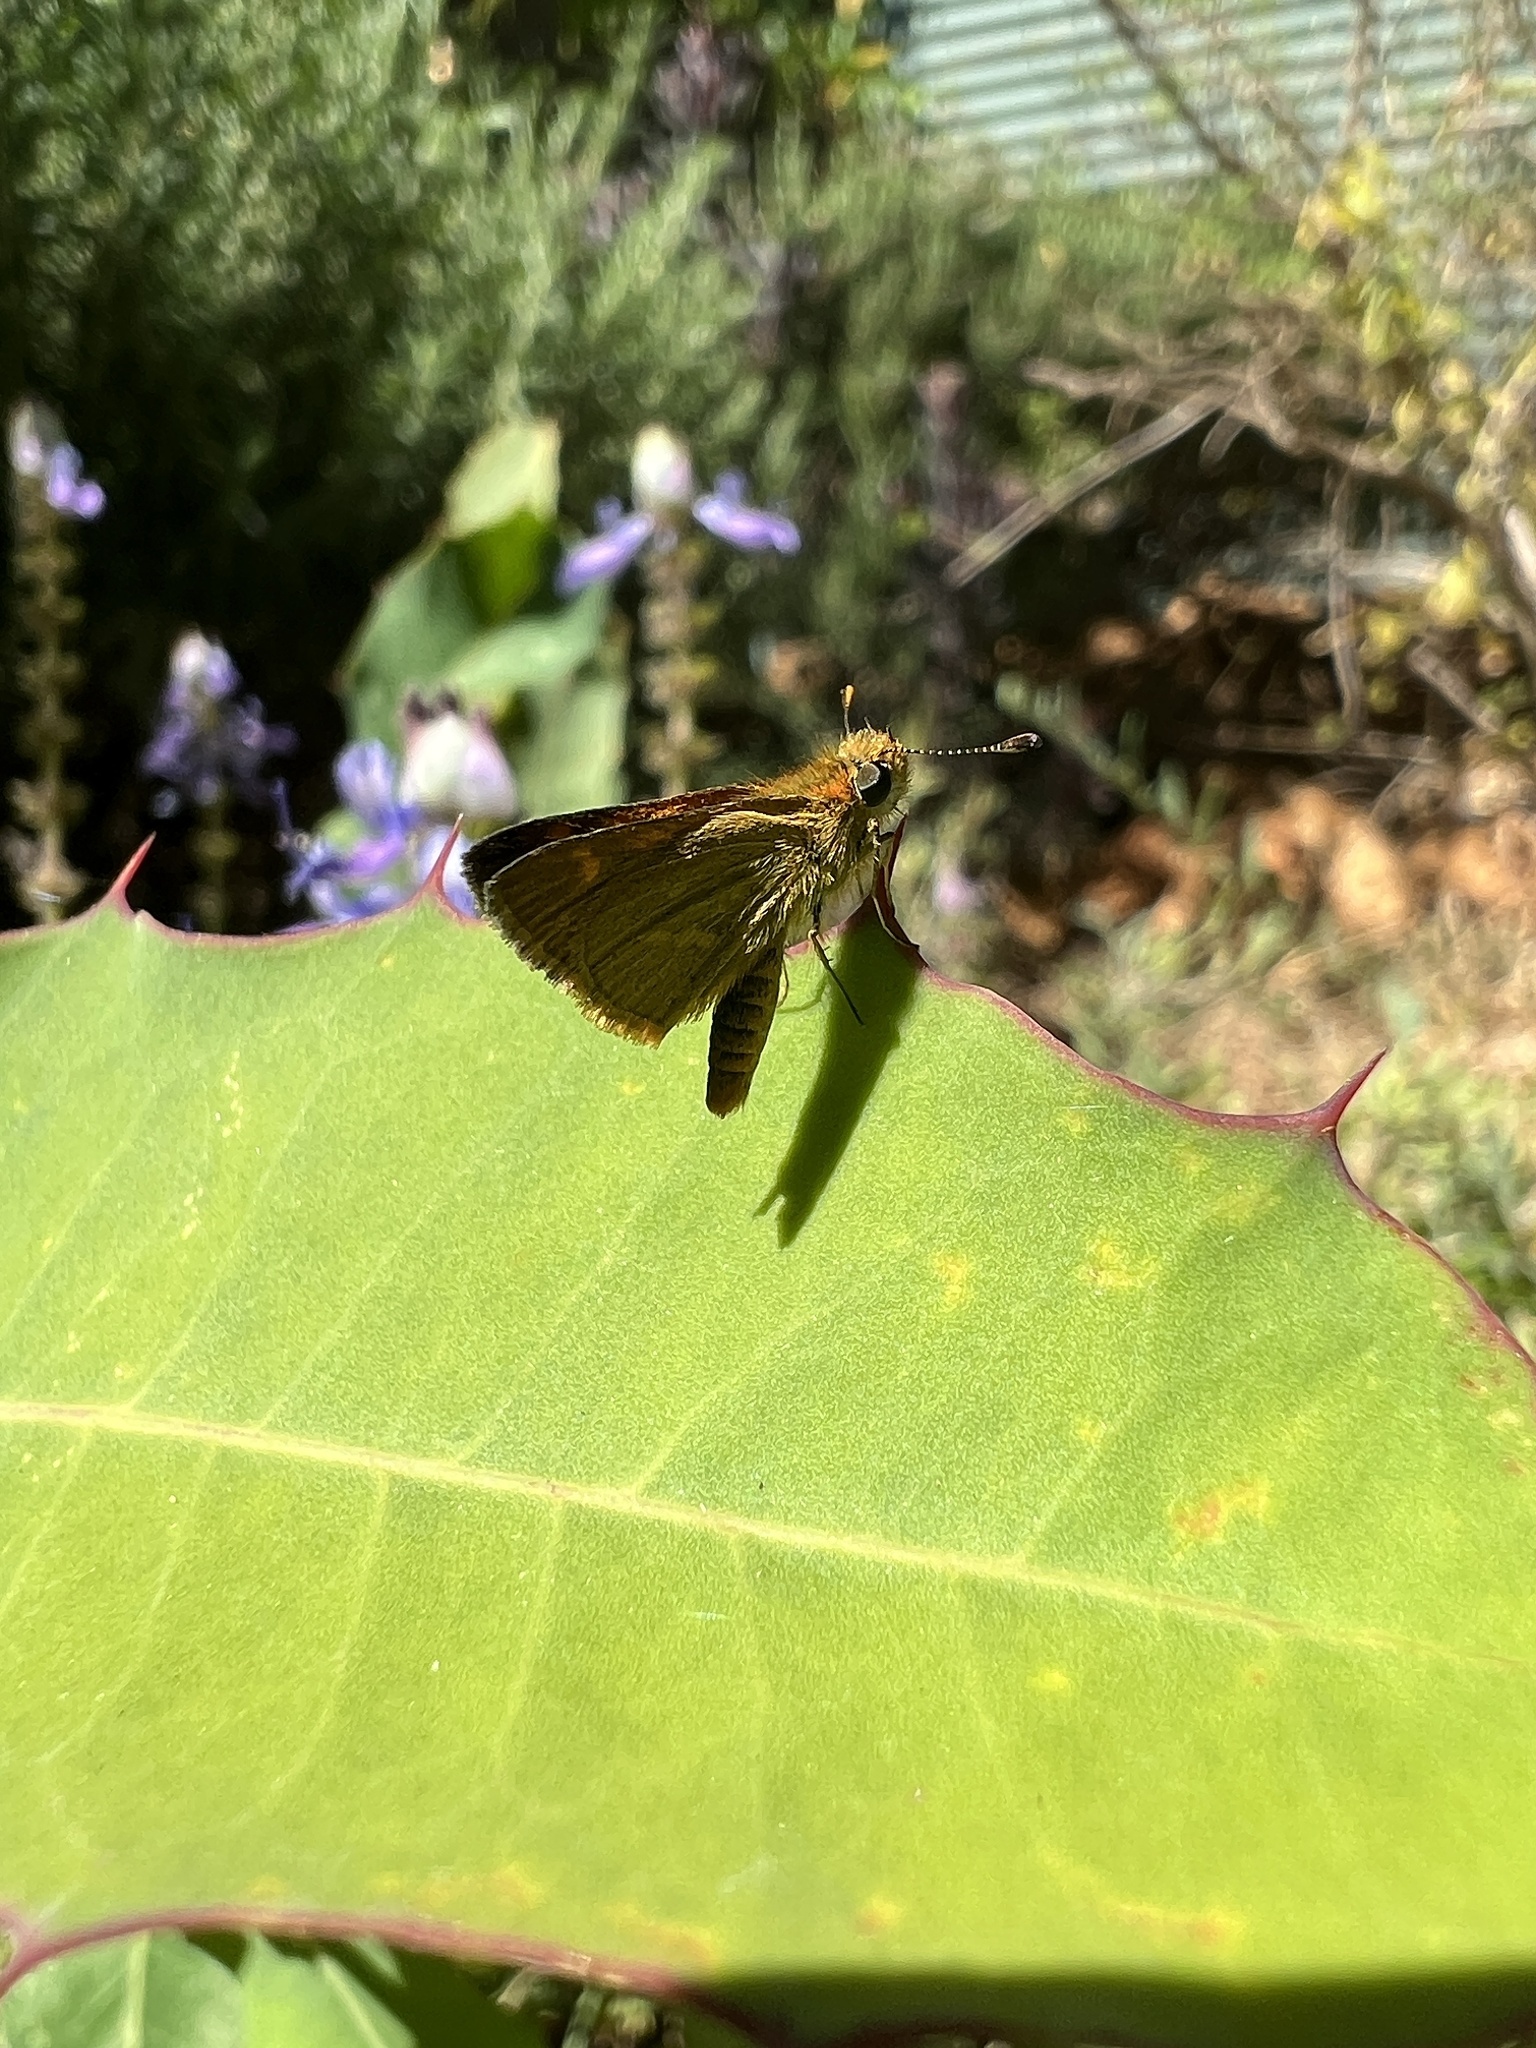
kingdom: Animalia
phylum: Arthropoda
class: Insecta
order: Lepidoptera
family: Hesperiidae
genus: Taractrocera
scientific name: Taractrocera papyria
